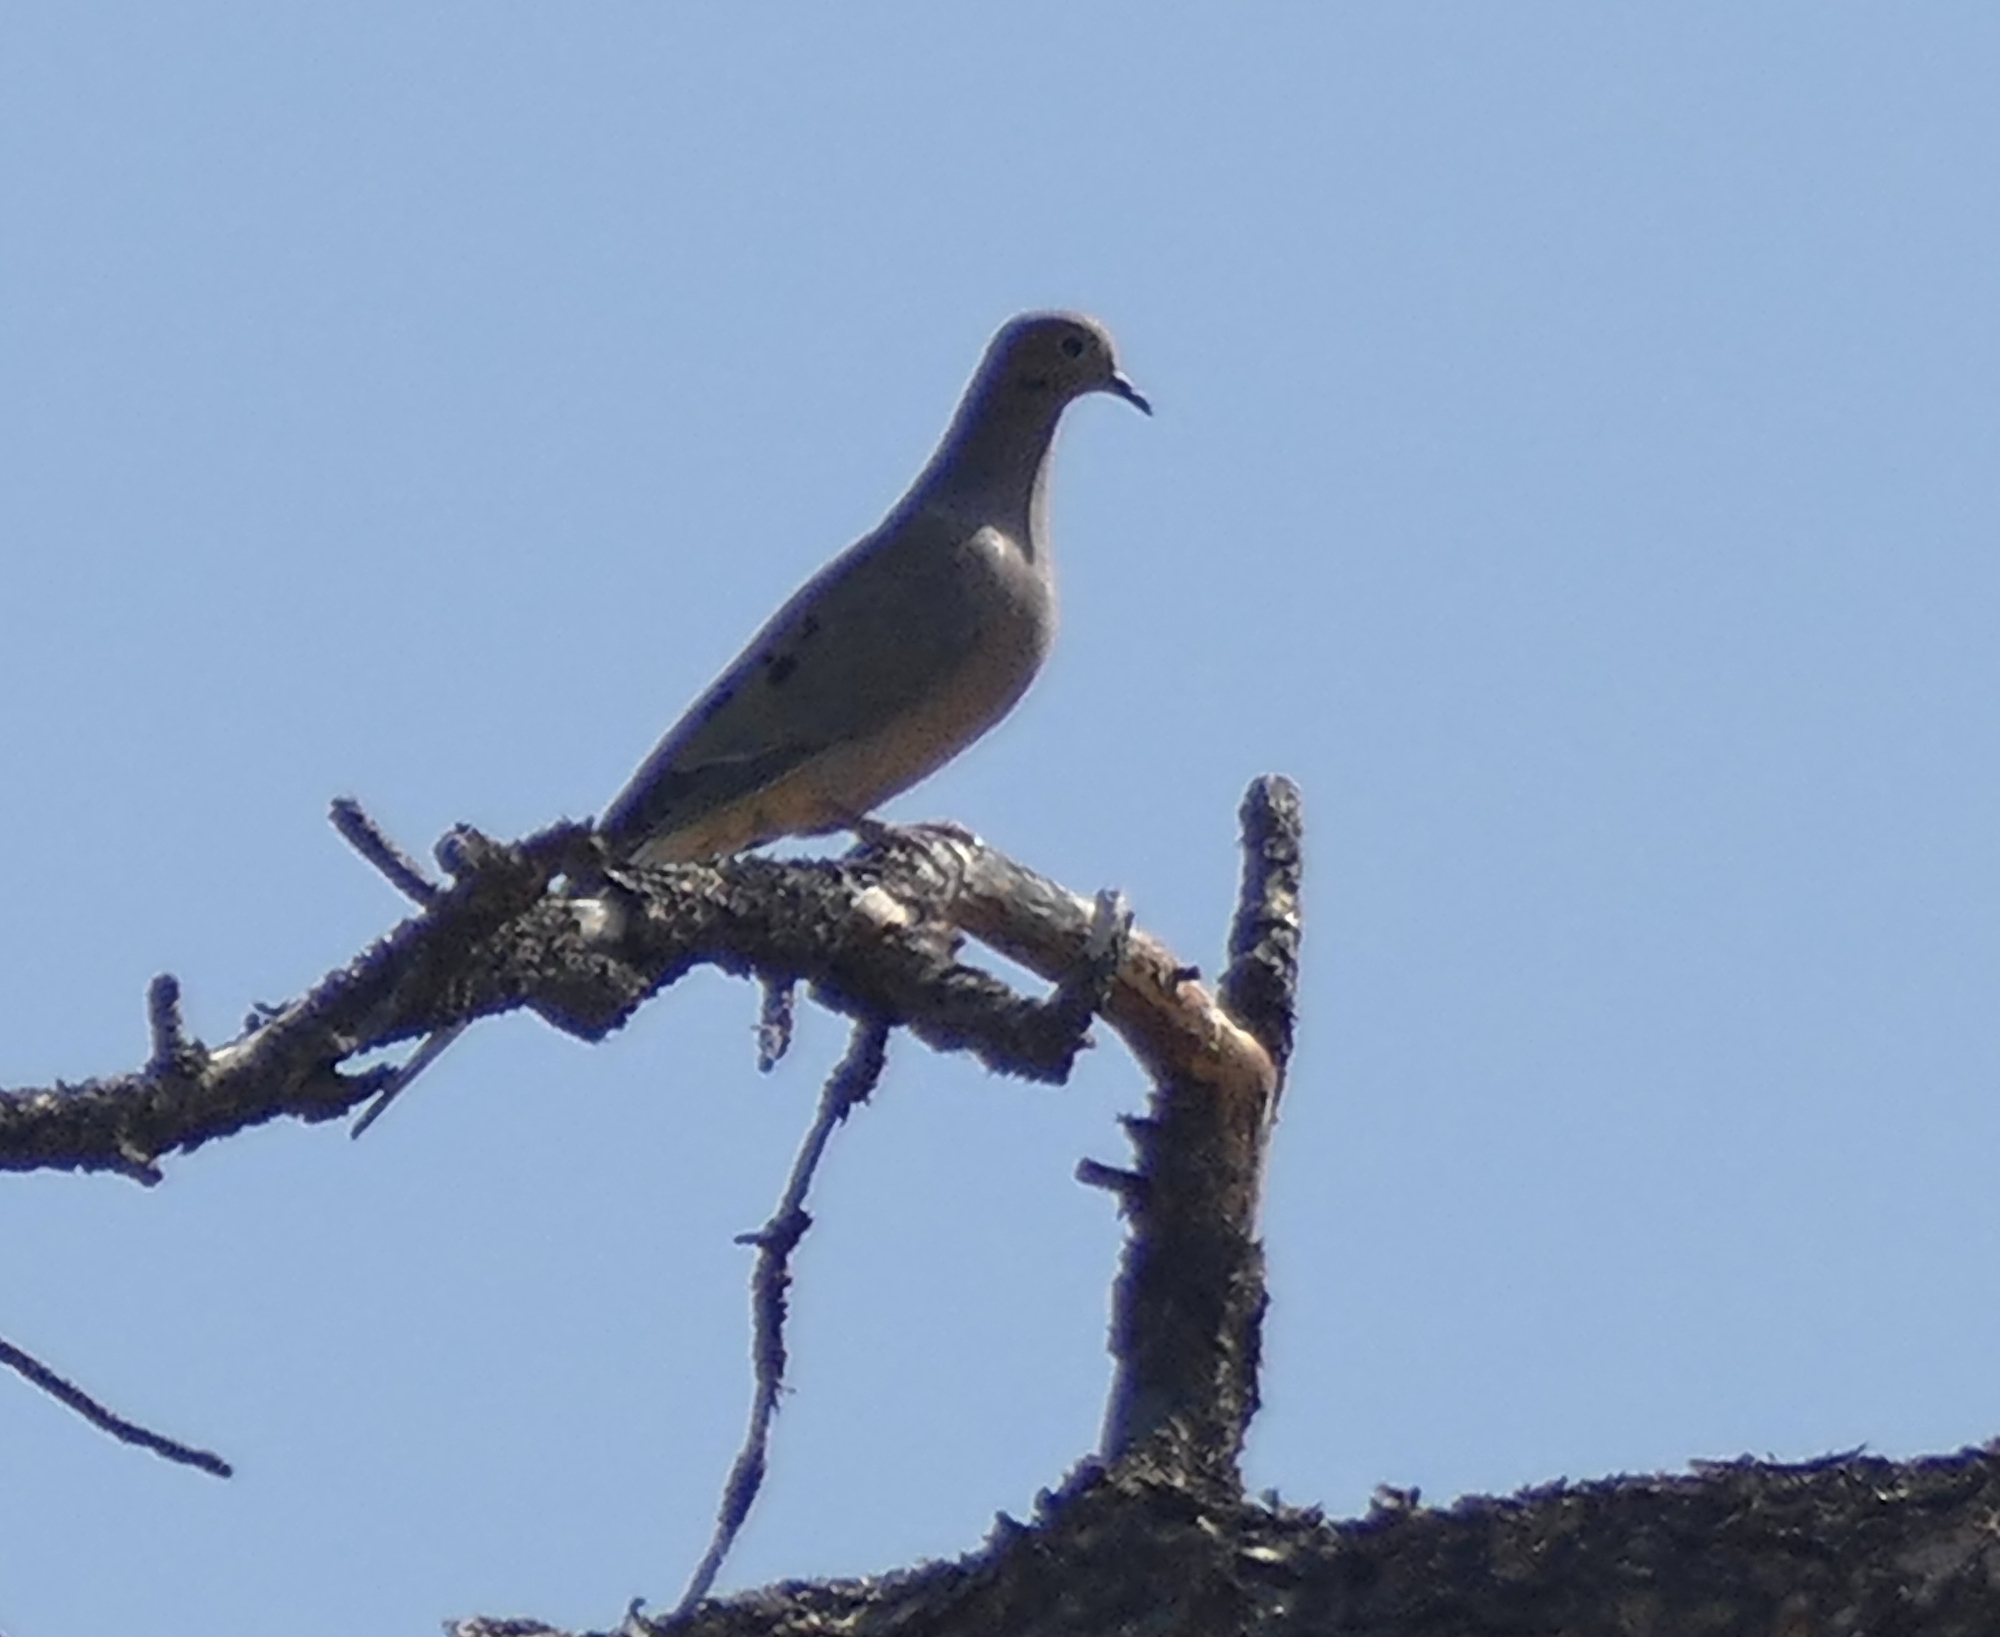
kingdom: Animalia
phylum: Chordata
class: Aves
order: Columbiformes
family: Columbidae
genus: Zenaida
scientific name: Zenaida macroura
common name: Mourning dove
